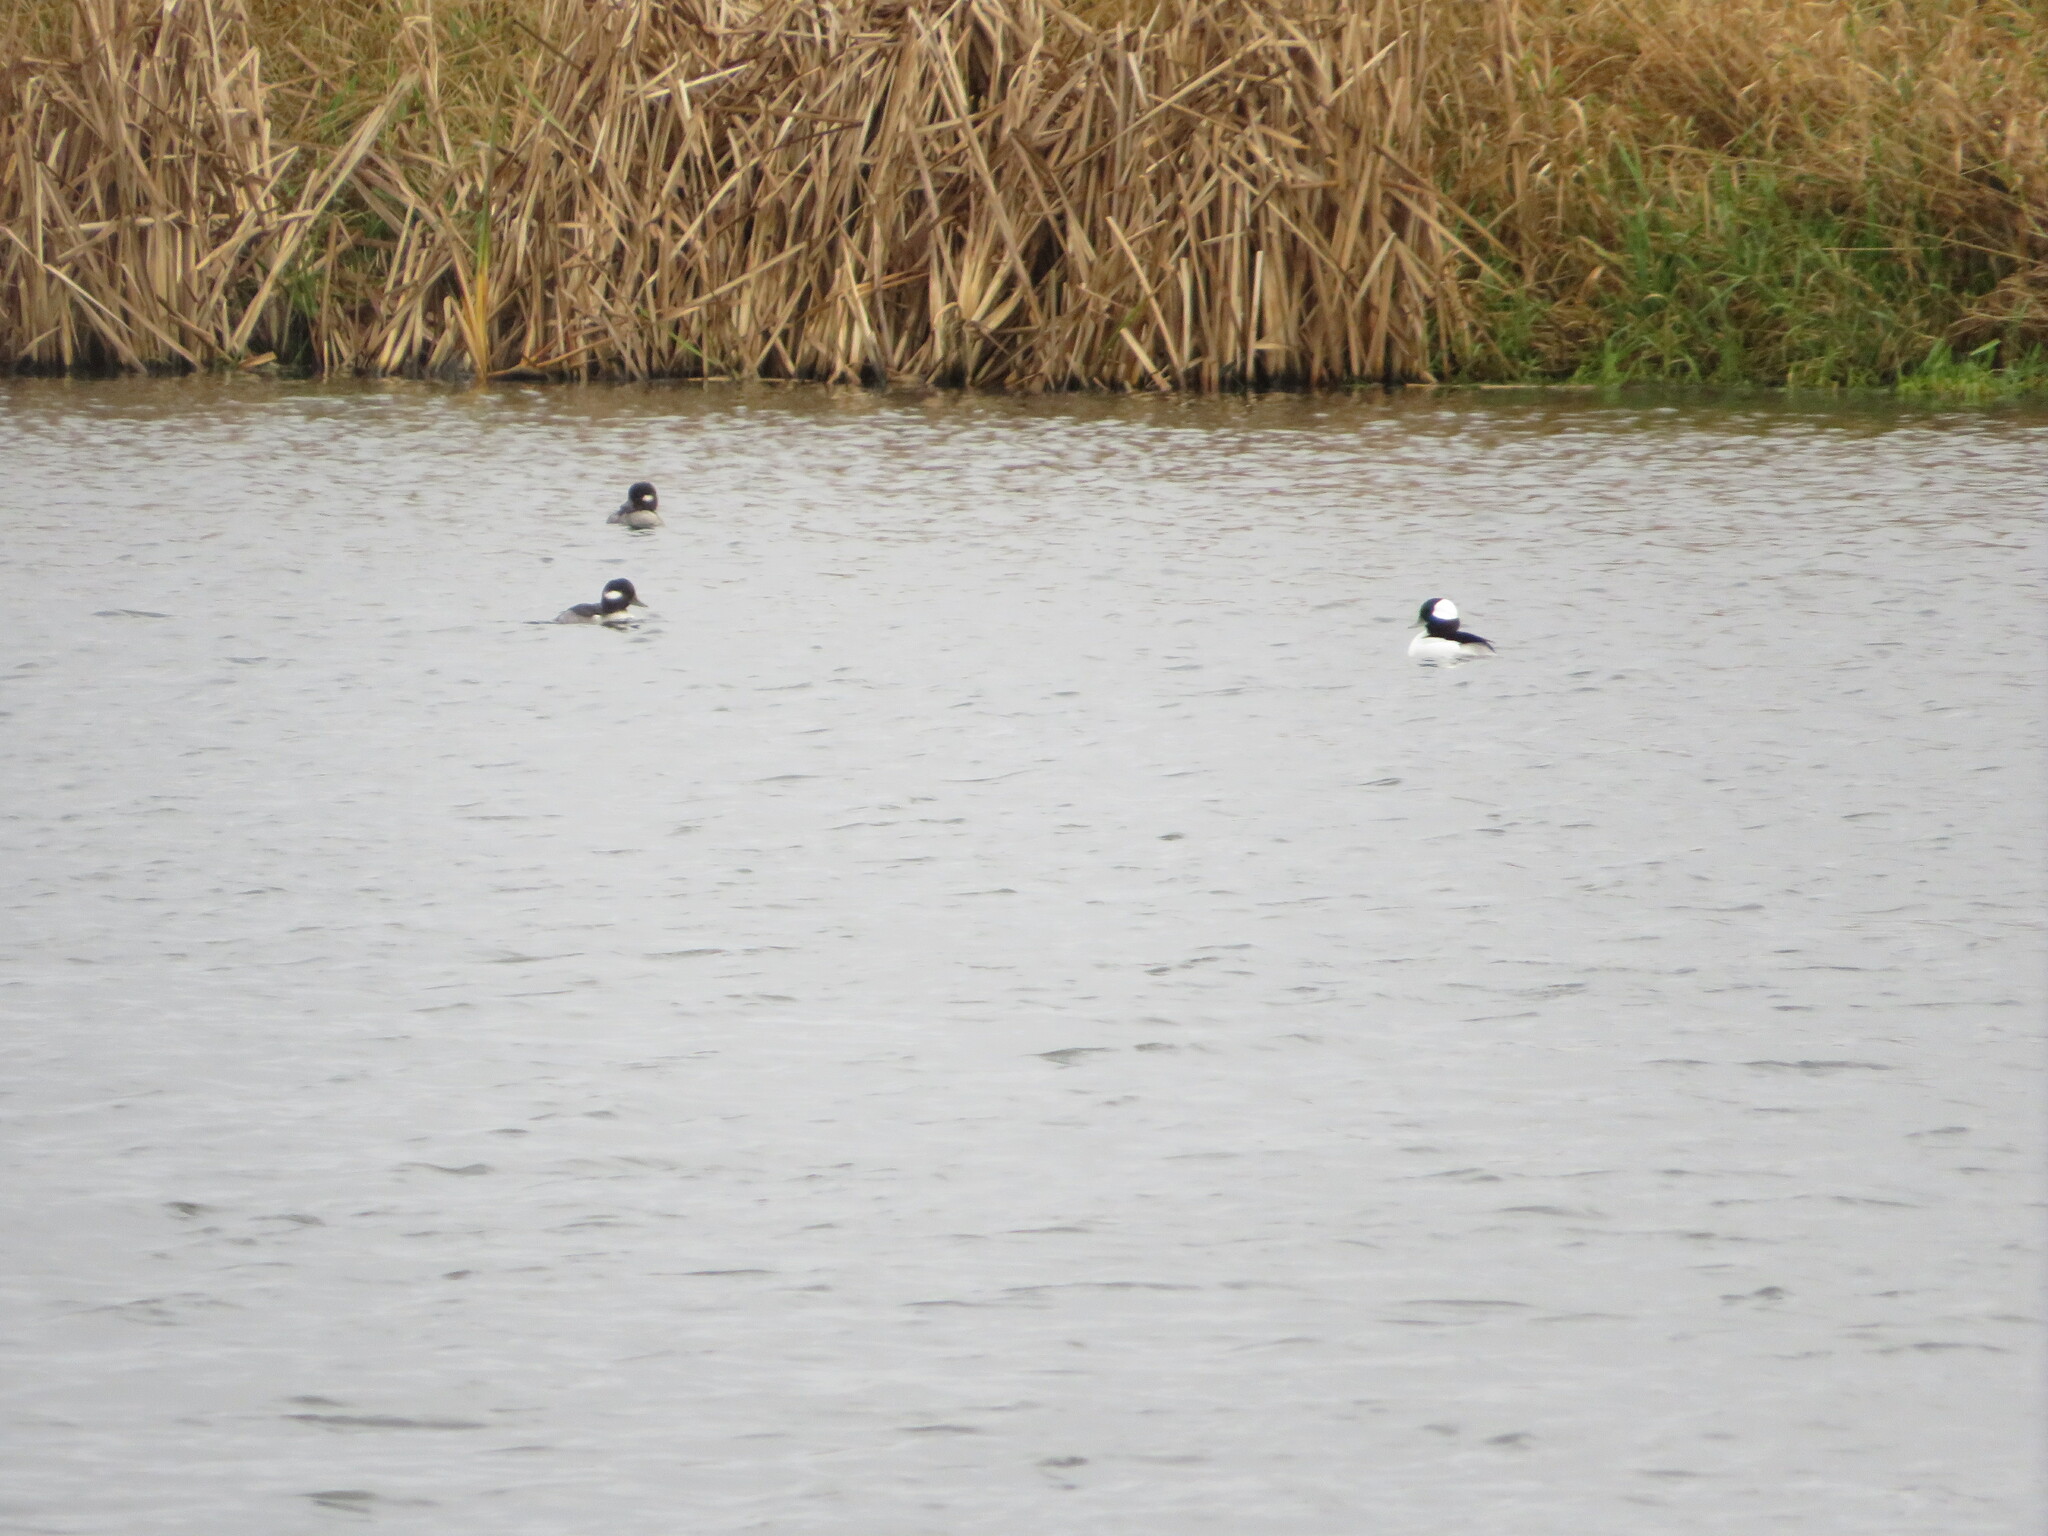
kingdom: Animalia
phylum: Chordata
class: Aves
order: Anseriformes
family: Anatidae
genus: Bucephala
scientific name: Bucephala albeola
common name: Bufflehead
